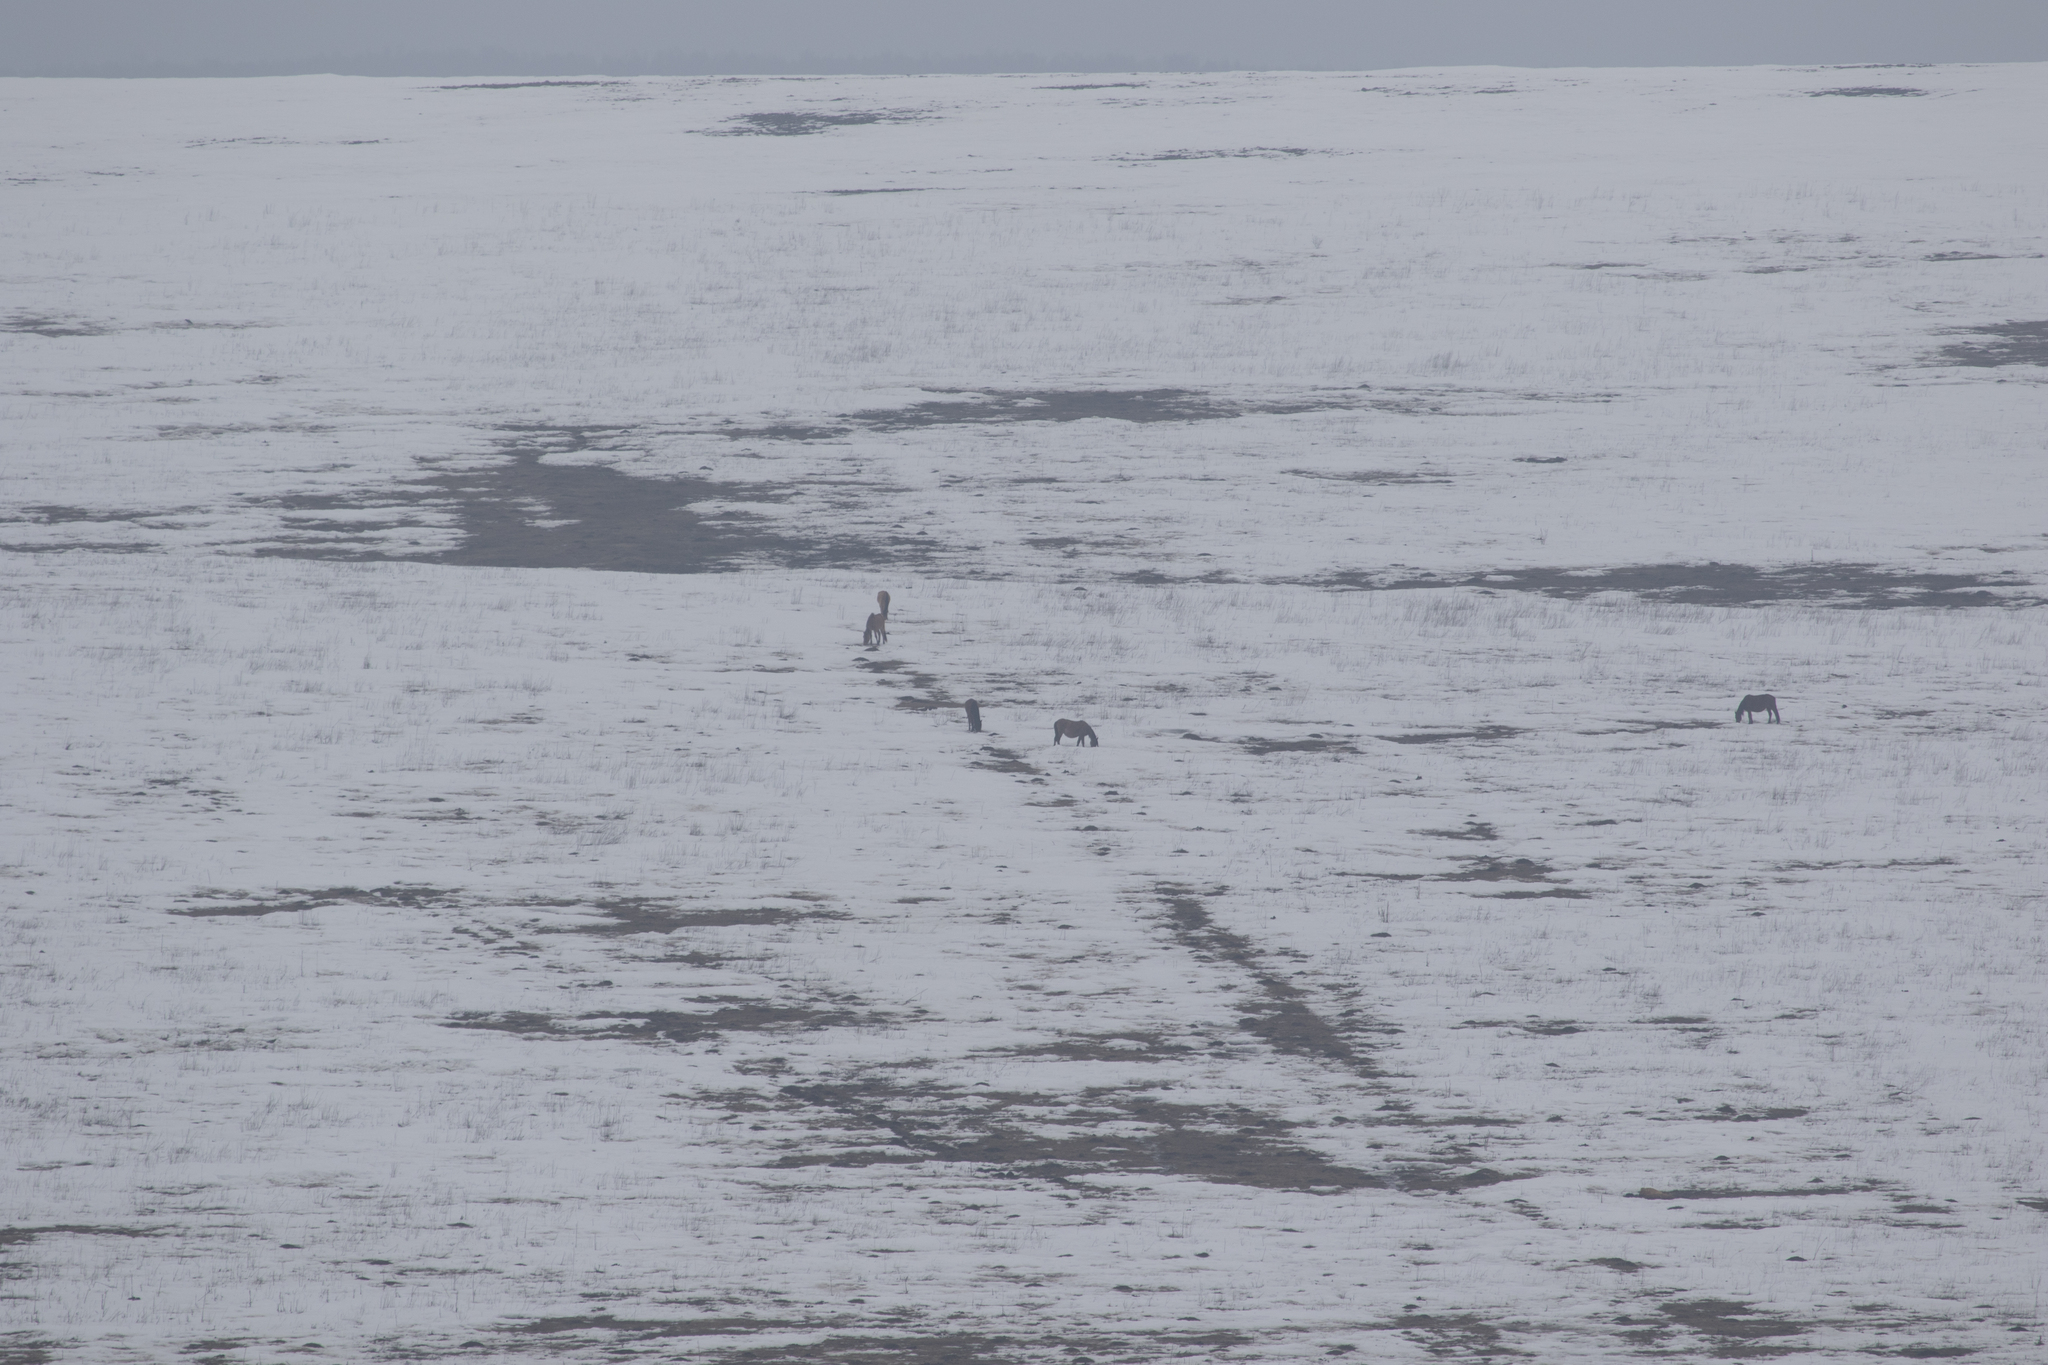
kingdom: Animalia
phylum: Chordata
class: Mammalia
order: Perissodactyla
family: Equidae
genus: Equus
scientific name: Equus caballus
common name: Horse
